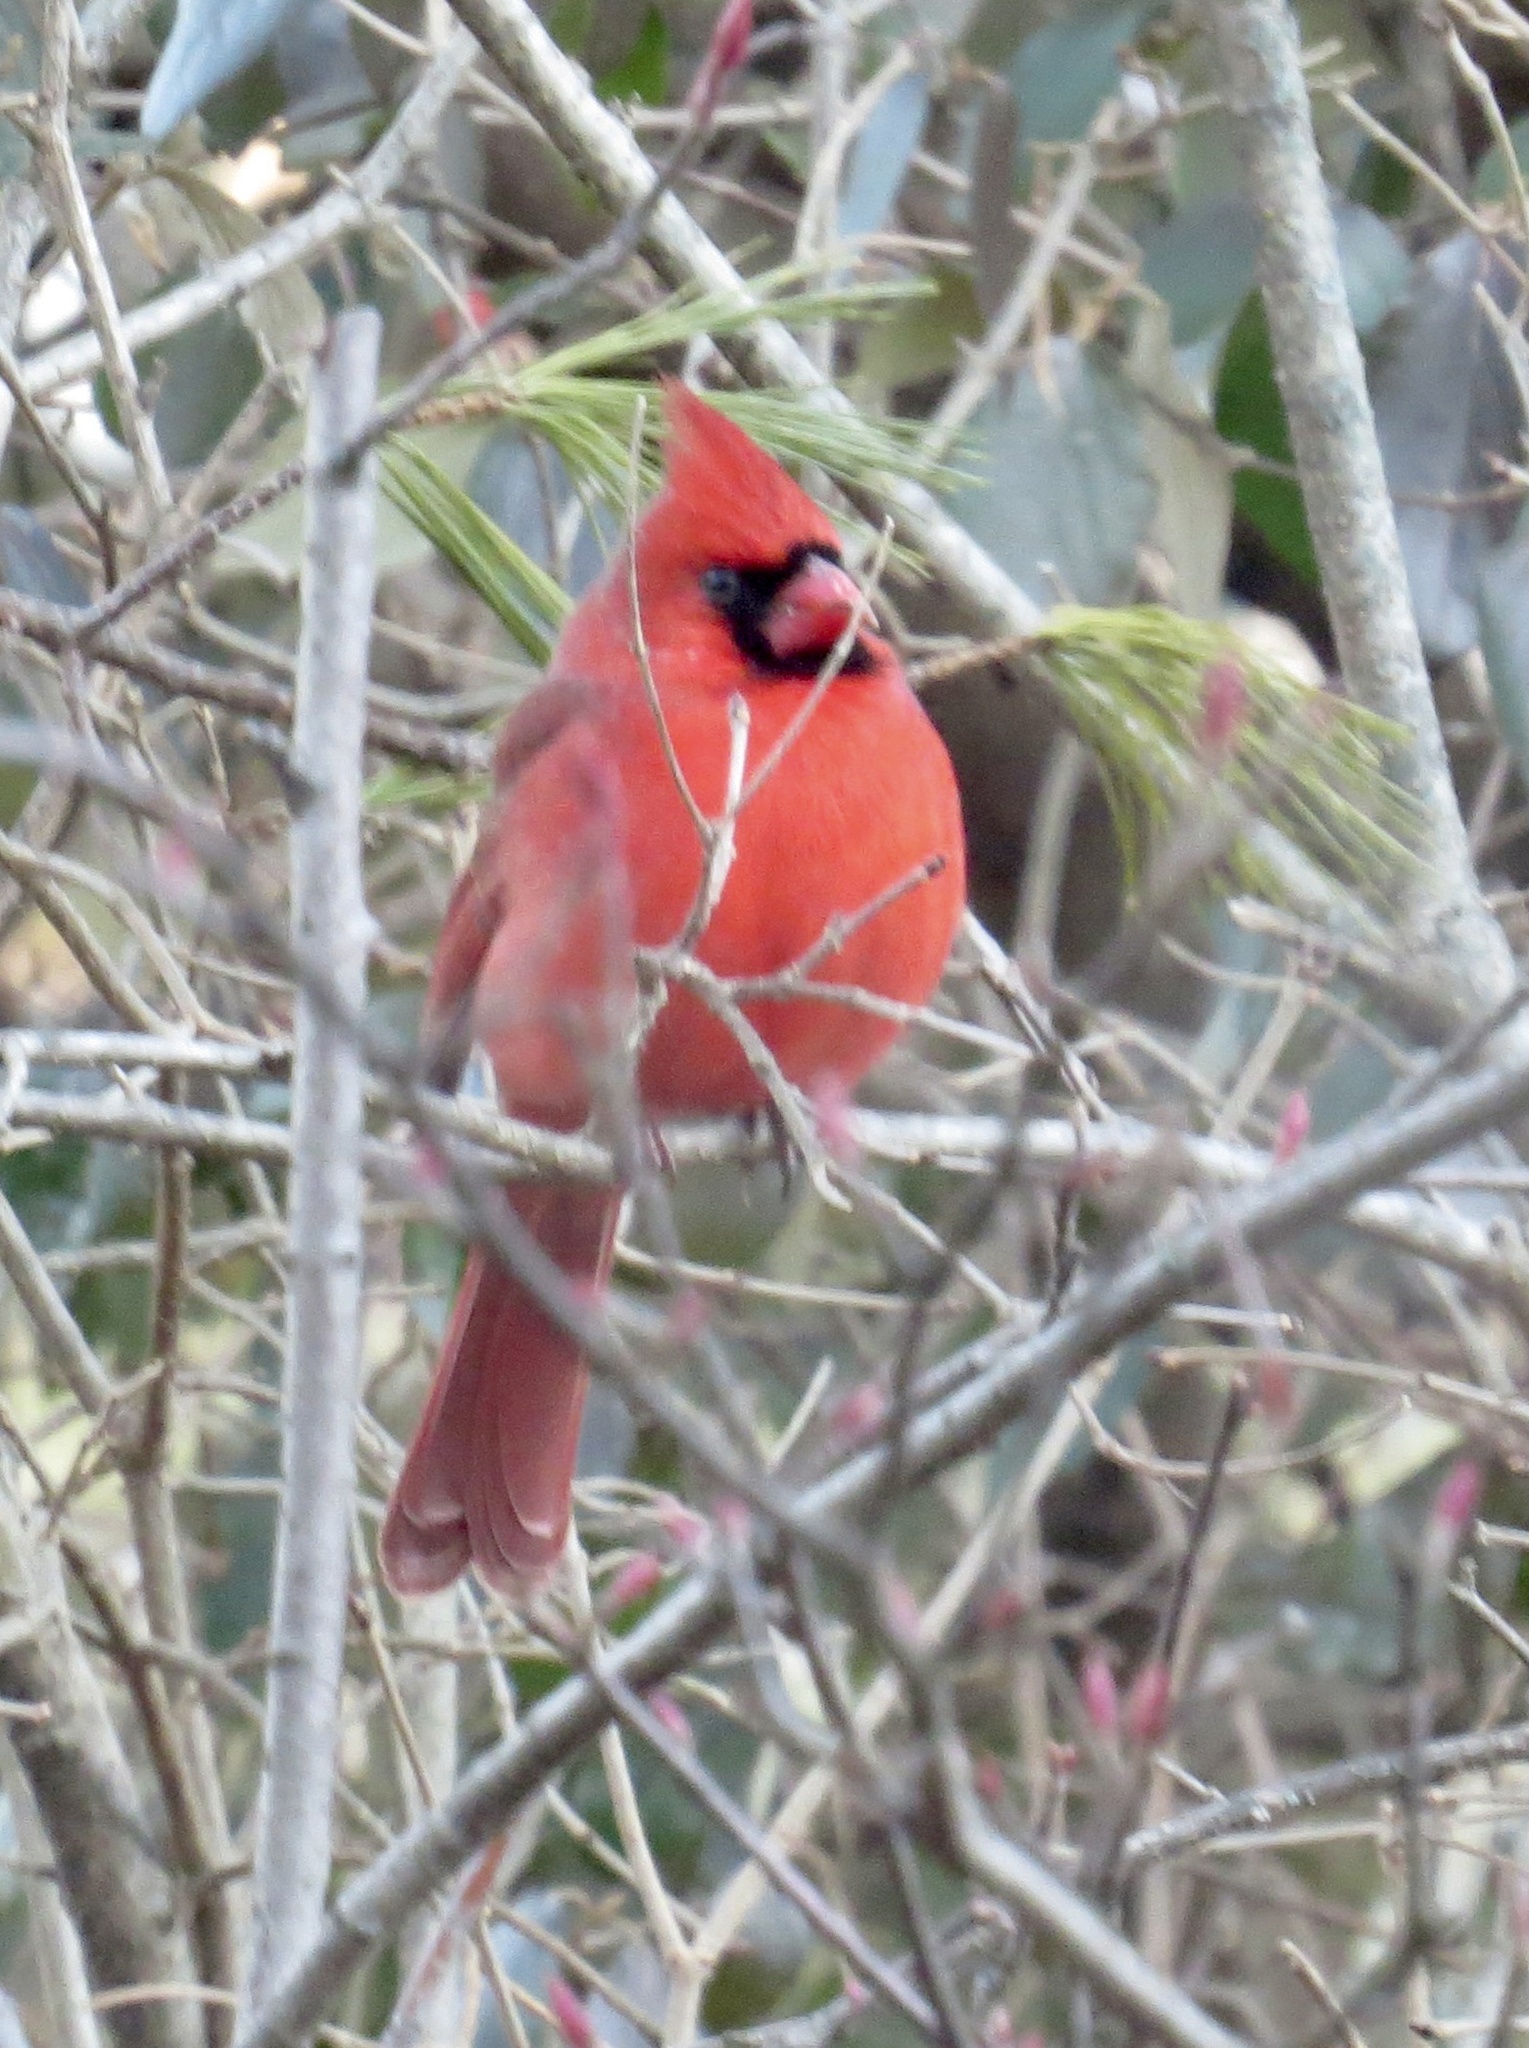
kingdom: Animalia
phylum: Chordata
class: Aves
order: Passeriformes
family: Cardinalidae
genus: Cardinalis
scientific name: Cardinalis cardinalis
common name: Northern cardinal
